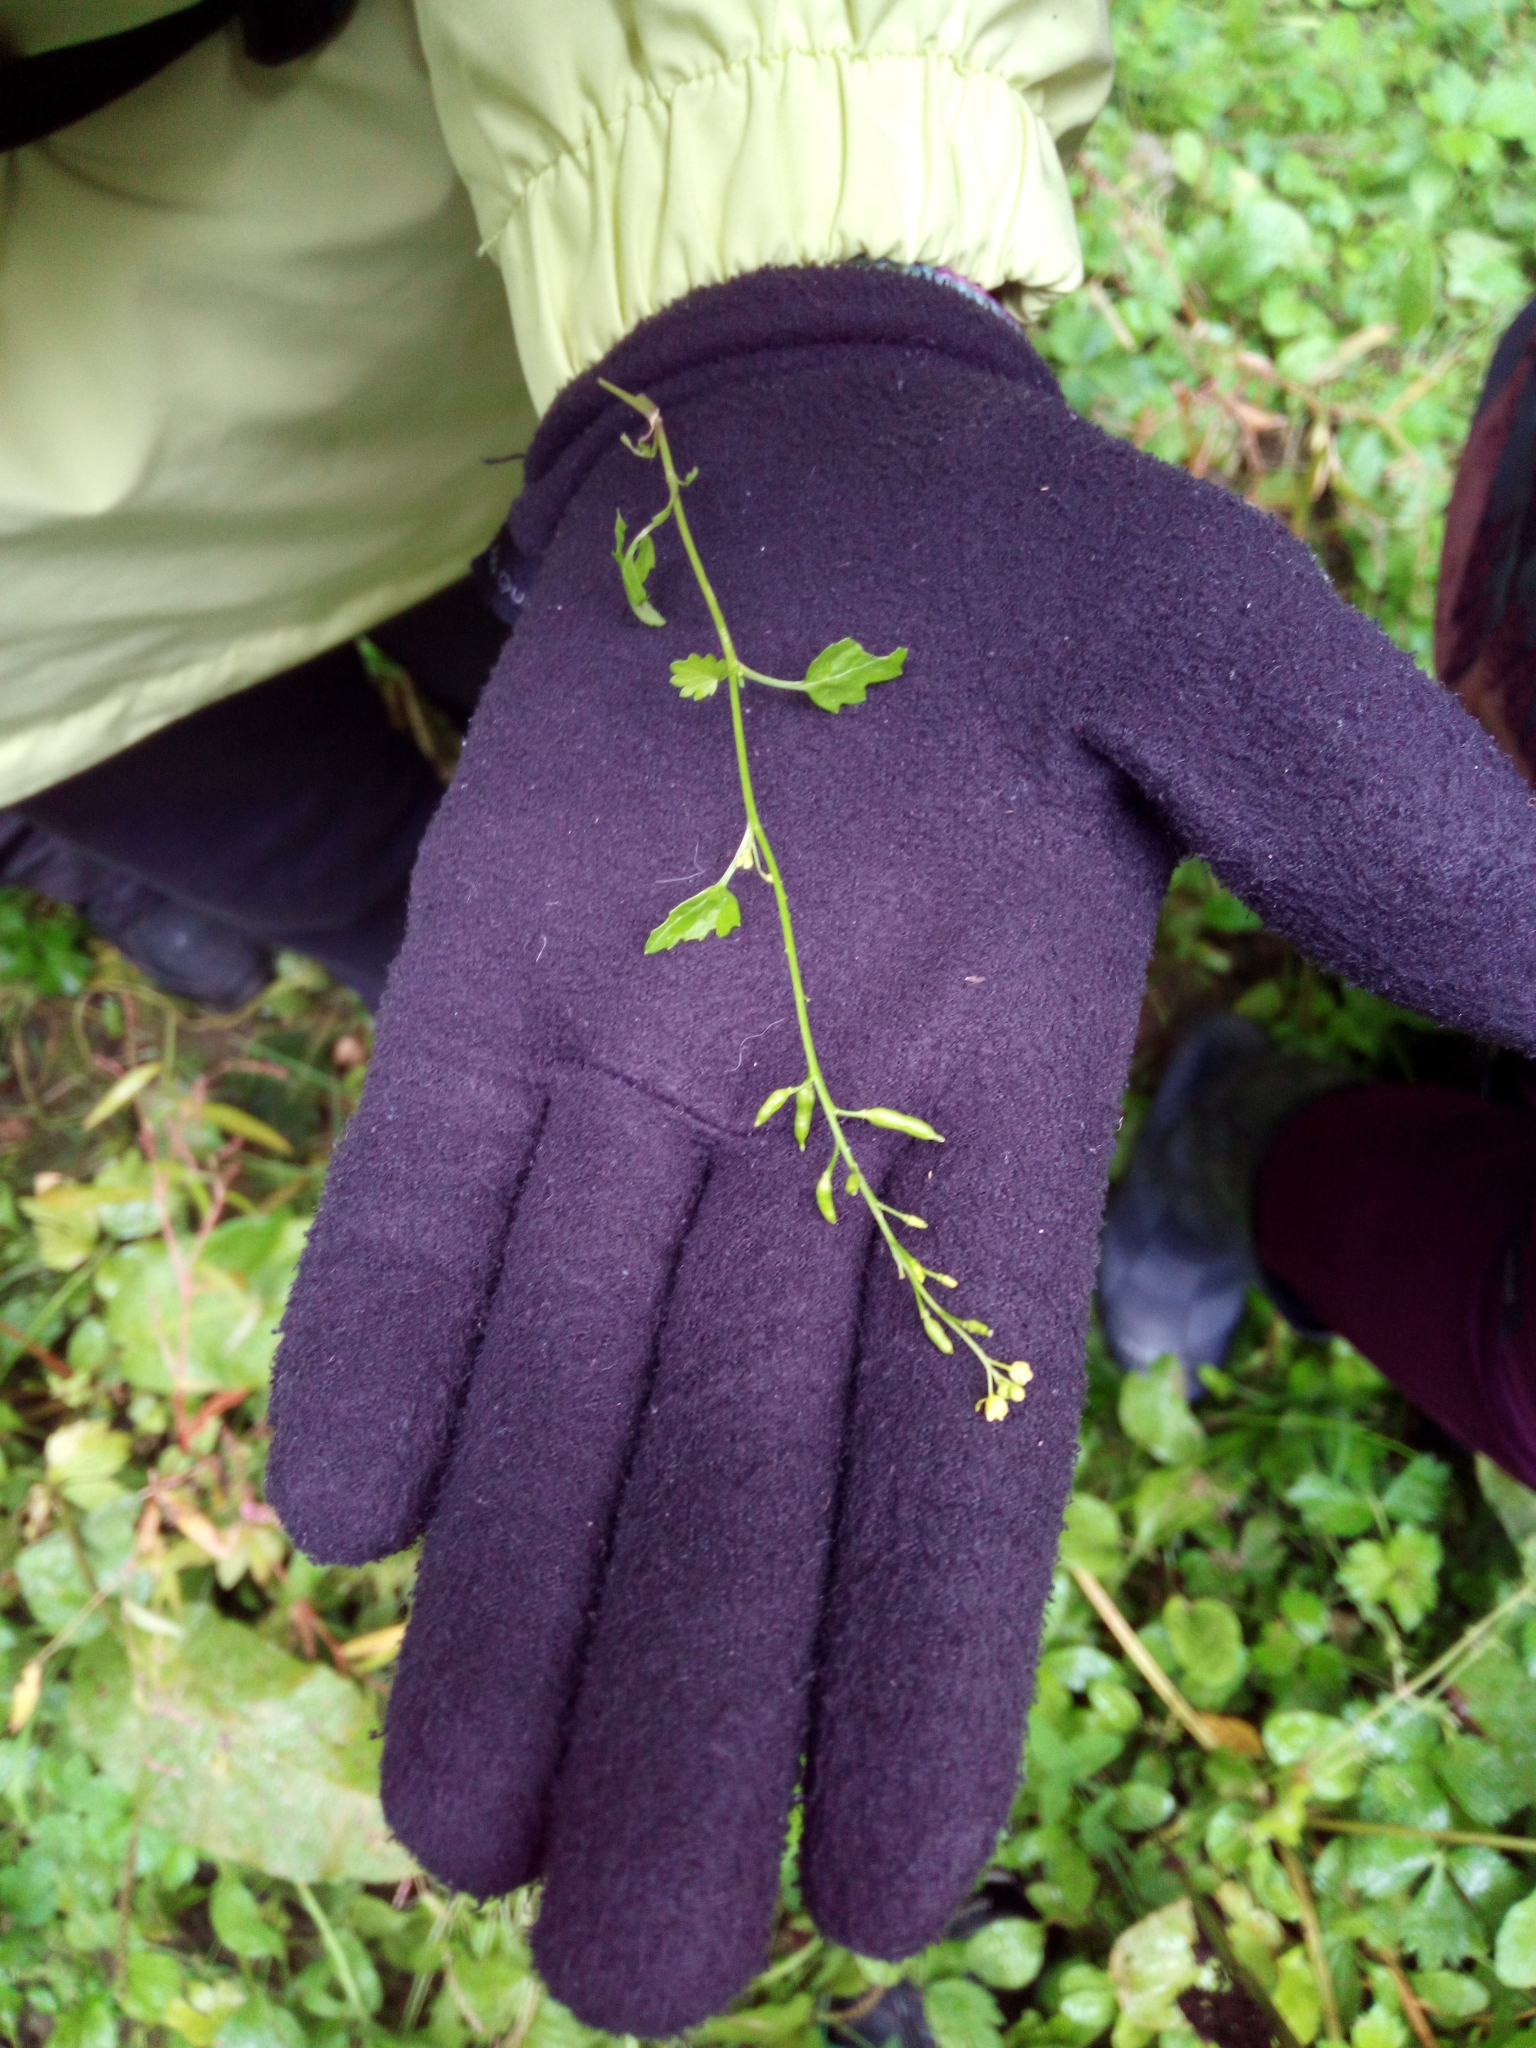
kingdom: Plantae
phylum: Tracheophyta
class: Magnoliopsida
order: Brassicales
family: Brassicaceae
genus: Rorippa
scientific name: Rorippa palustris
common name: Marsh yellow-cress
